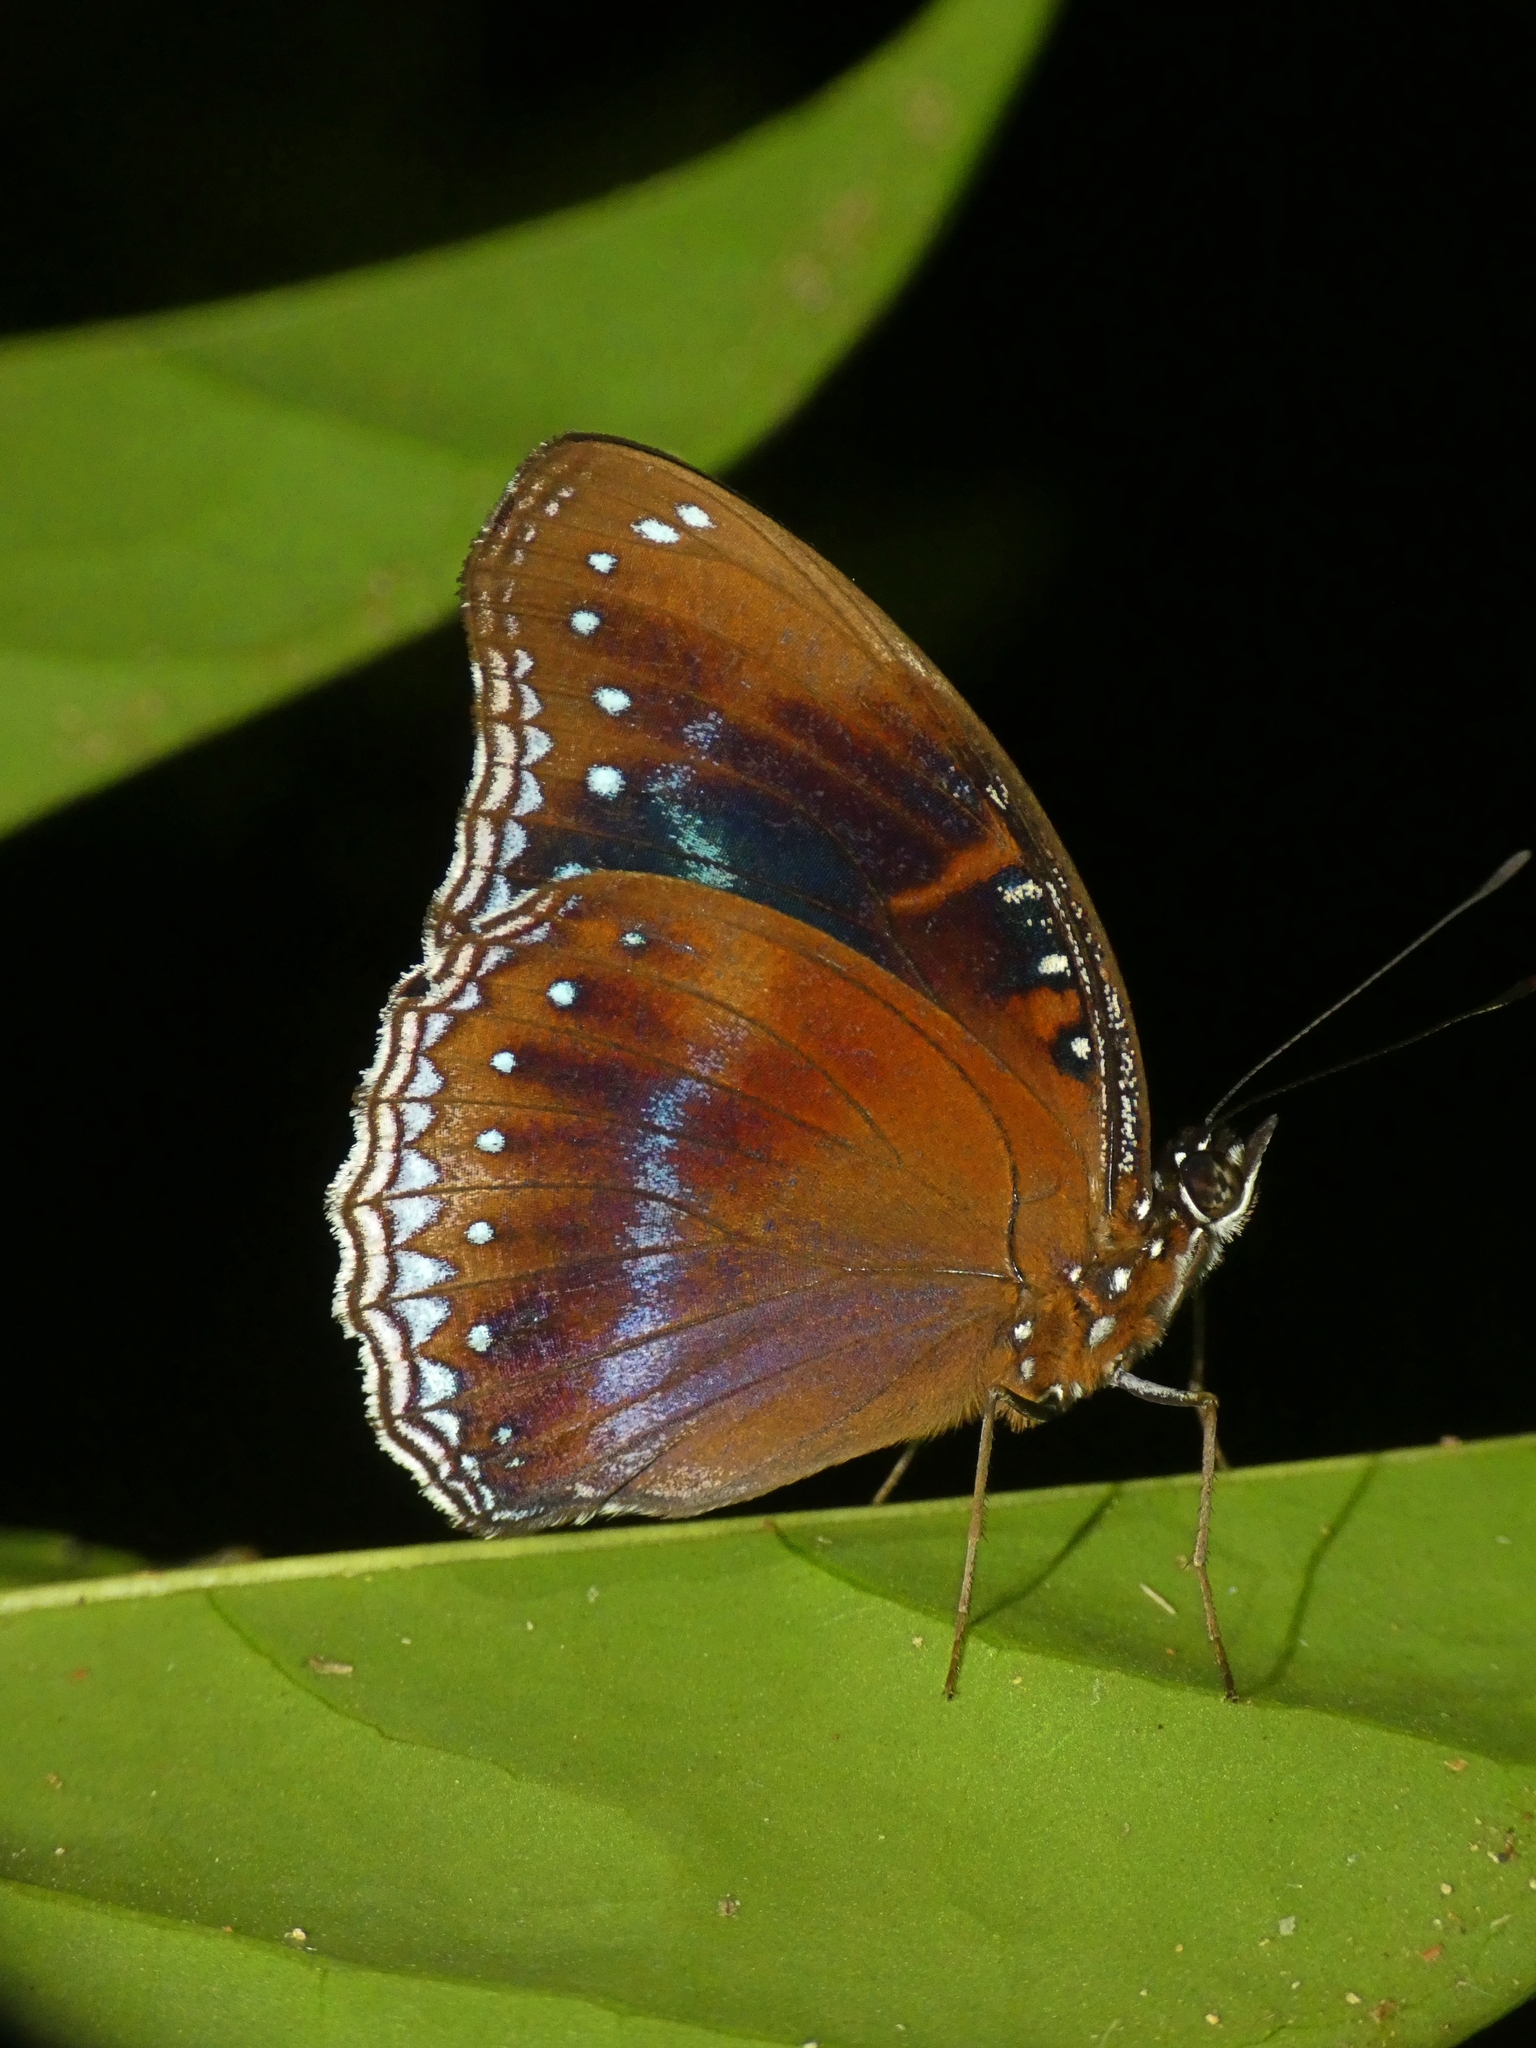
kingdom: Animalia
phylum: Arthropoda
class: Insecta
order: Lepidoptera
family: Nymphalidae
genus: Hypolimnas
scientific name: Hypolimnas alimena
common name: Blue-banded eggfly
